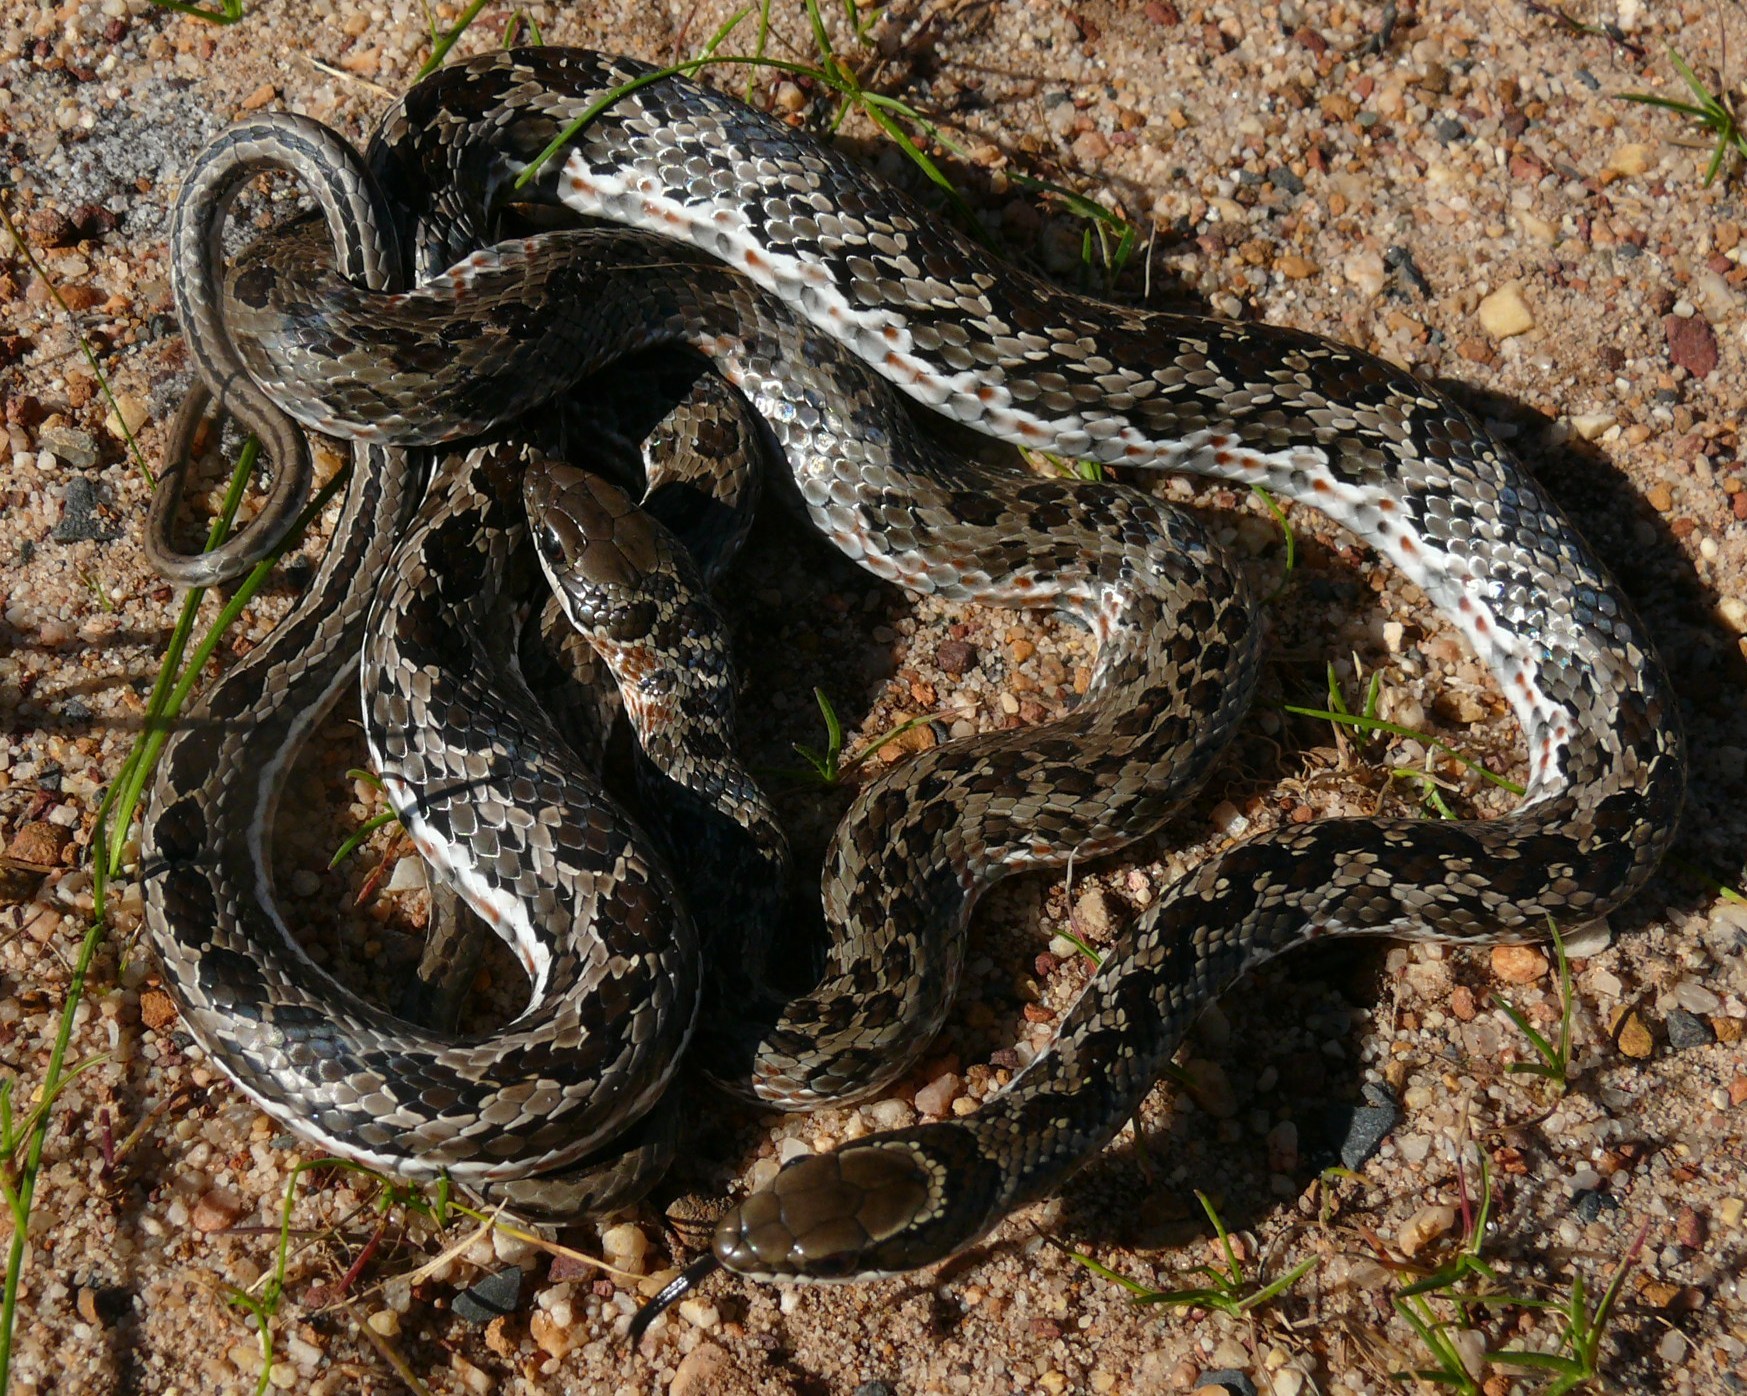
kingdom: Animalia
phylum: Chordata
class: Squamata
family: Psammophiidae
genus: Psammophylax
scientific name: Psammophylax rhombeatus
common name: Rhombic skaapsteker
